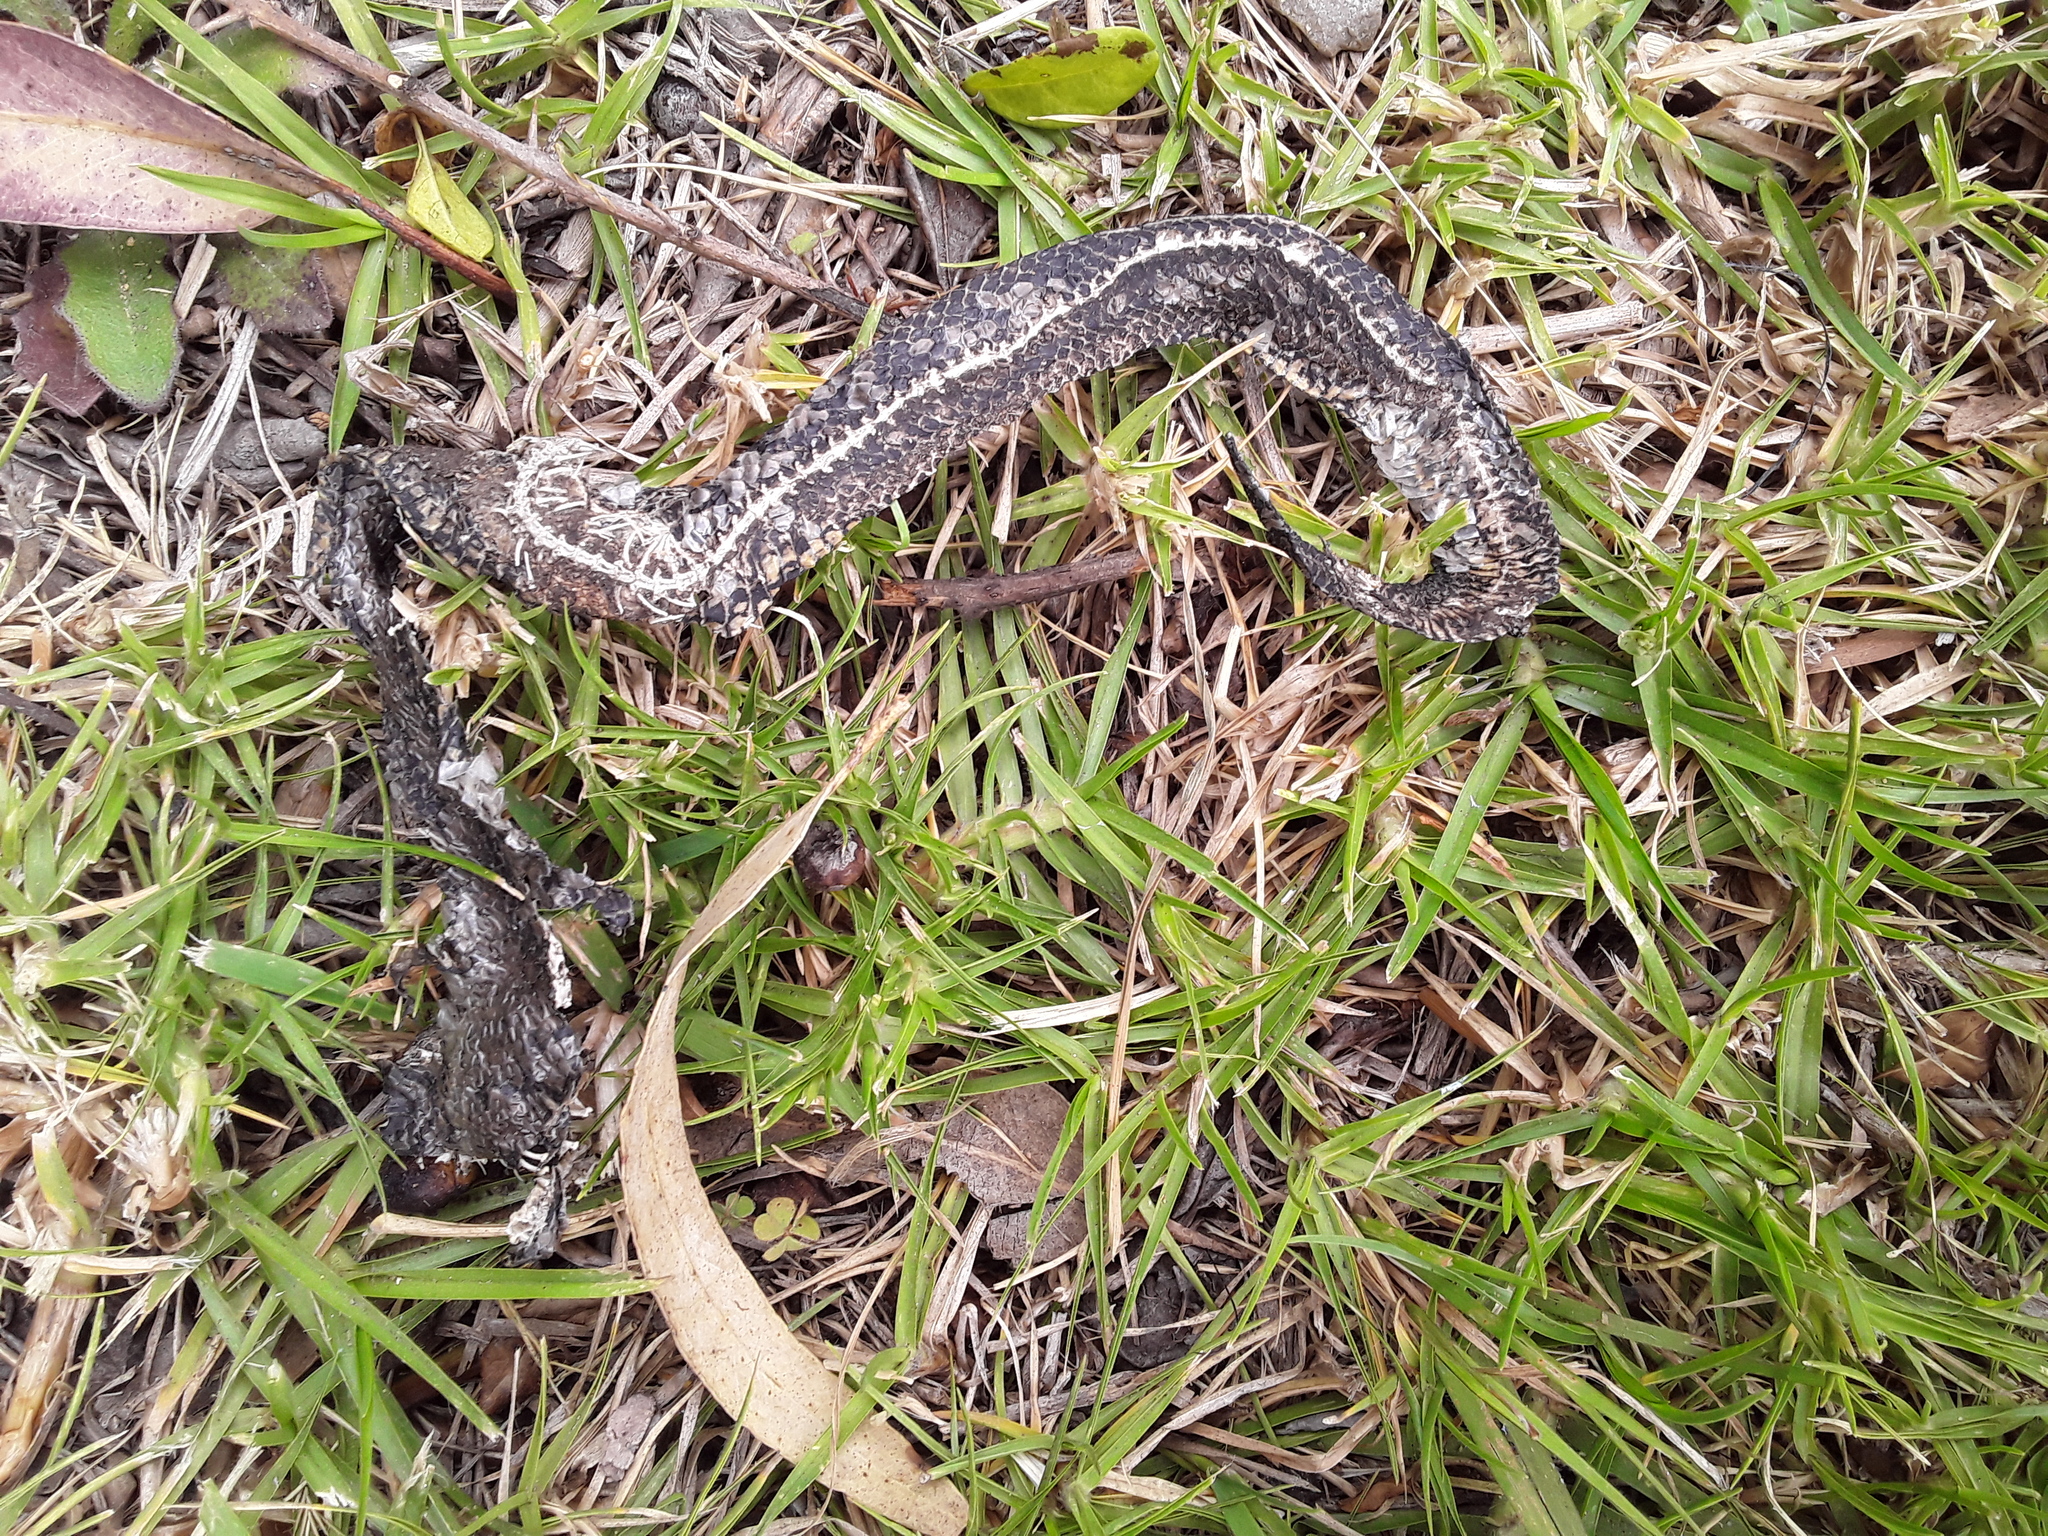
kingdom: Animalia
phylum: Chordata
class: Squamata
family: Colubridae
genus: Atractus
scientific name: Atractus crassicaudatus
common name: Thickhead ground snake
